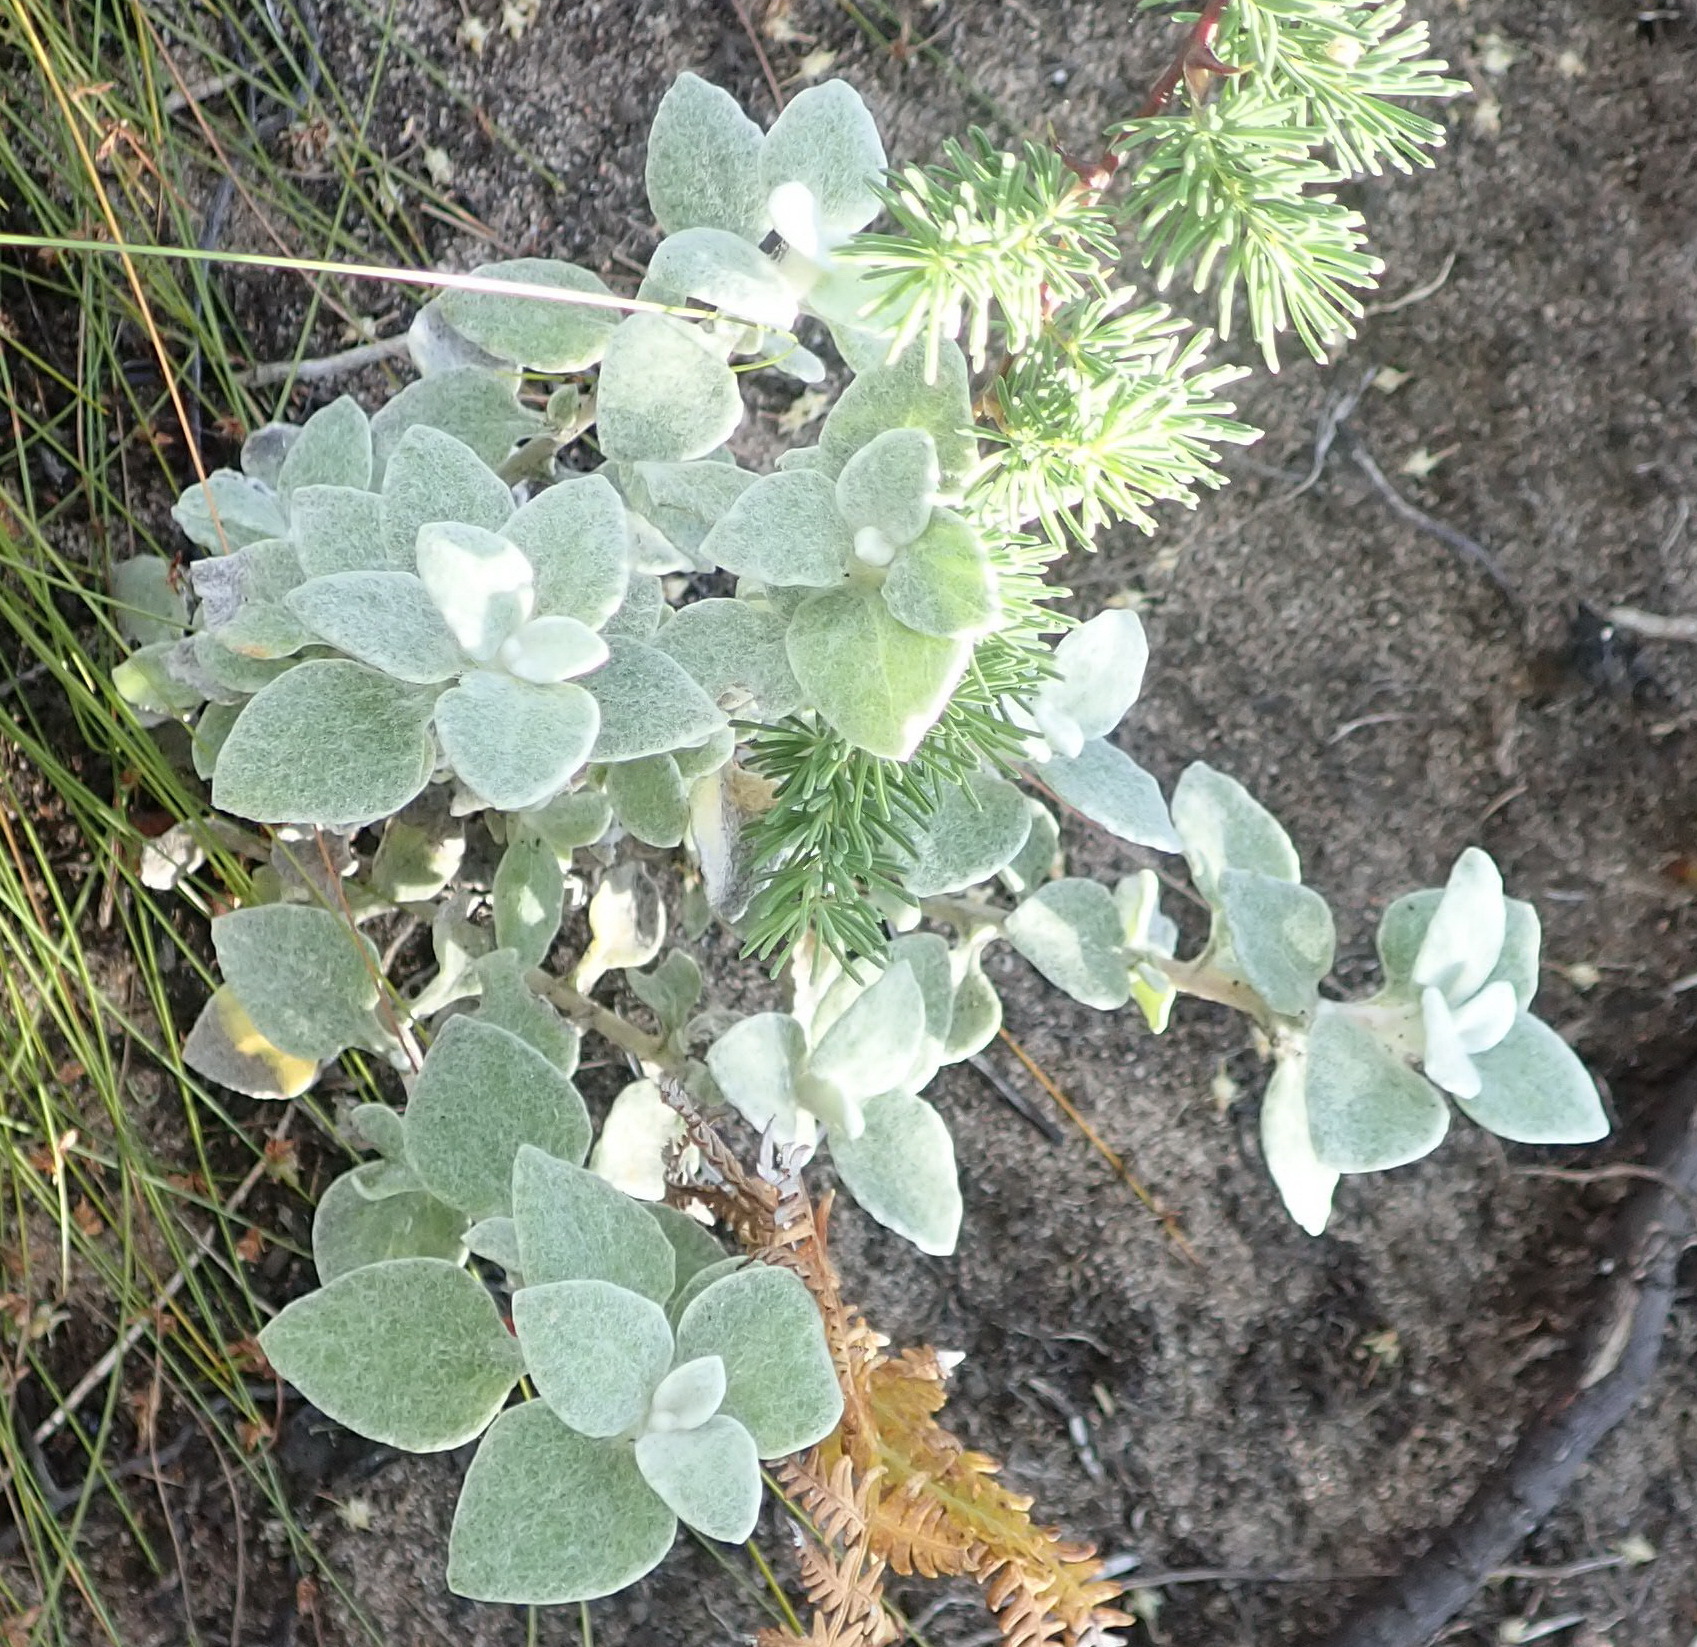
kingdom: Plantae
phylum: Tracheophyta
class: Magnoliopsida
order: Asterales
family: Asteraceae
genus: Helichrysum
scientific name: Helichrysum petiolare
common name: Licorice-plant
